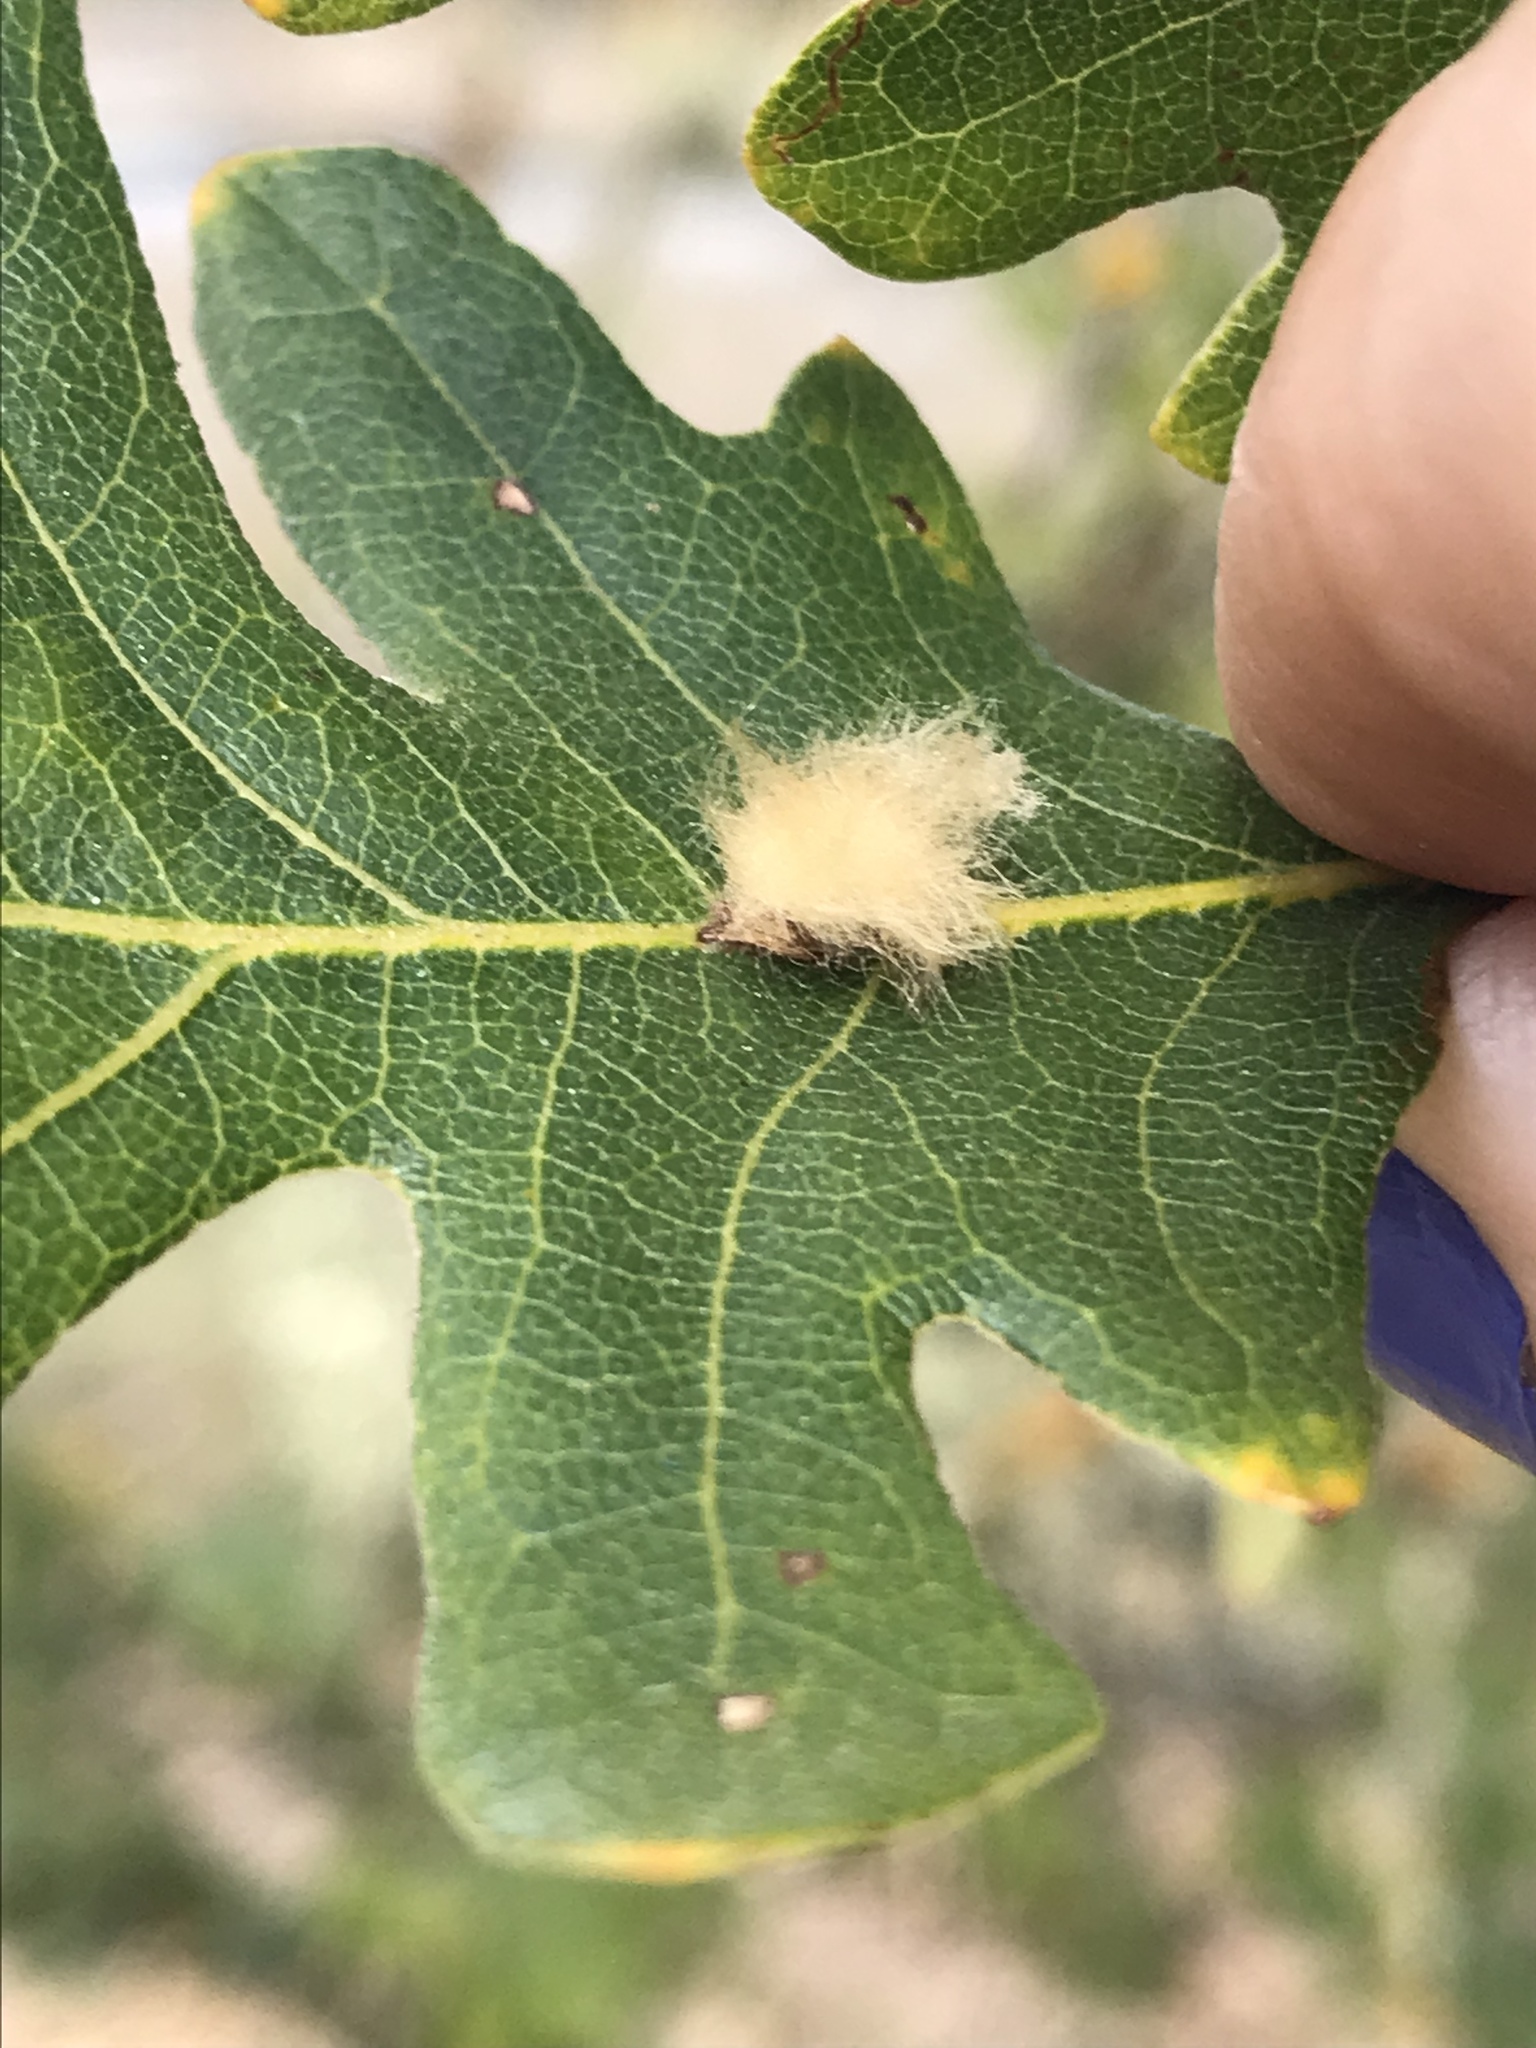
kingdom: Animalia
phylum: Arthropoda
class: Insecta
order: Hymenoptera
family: Cynipidae
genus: Andricus
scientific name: Andricus Druon fullawayi
